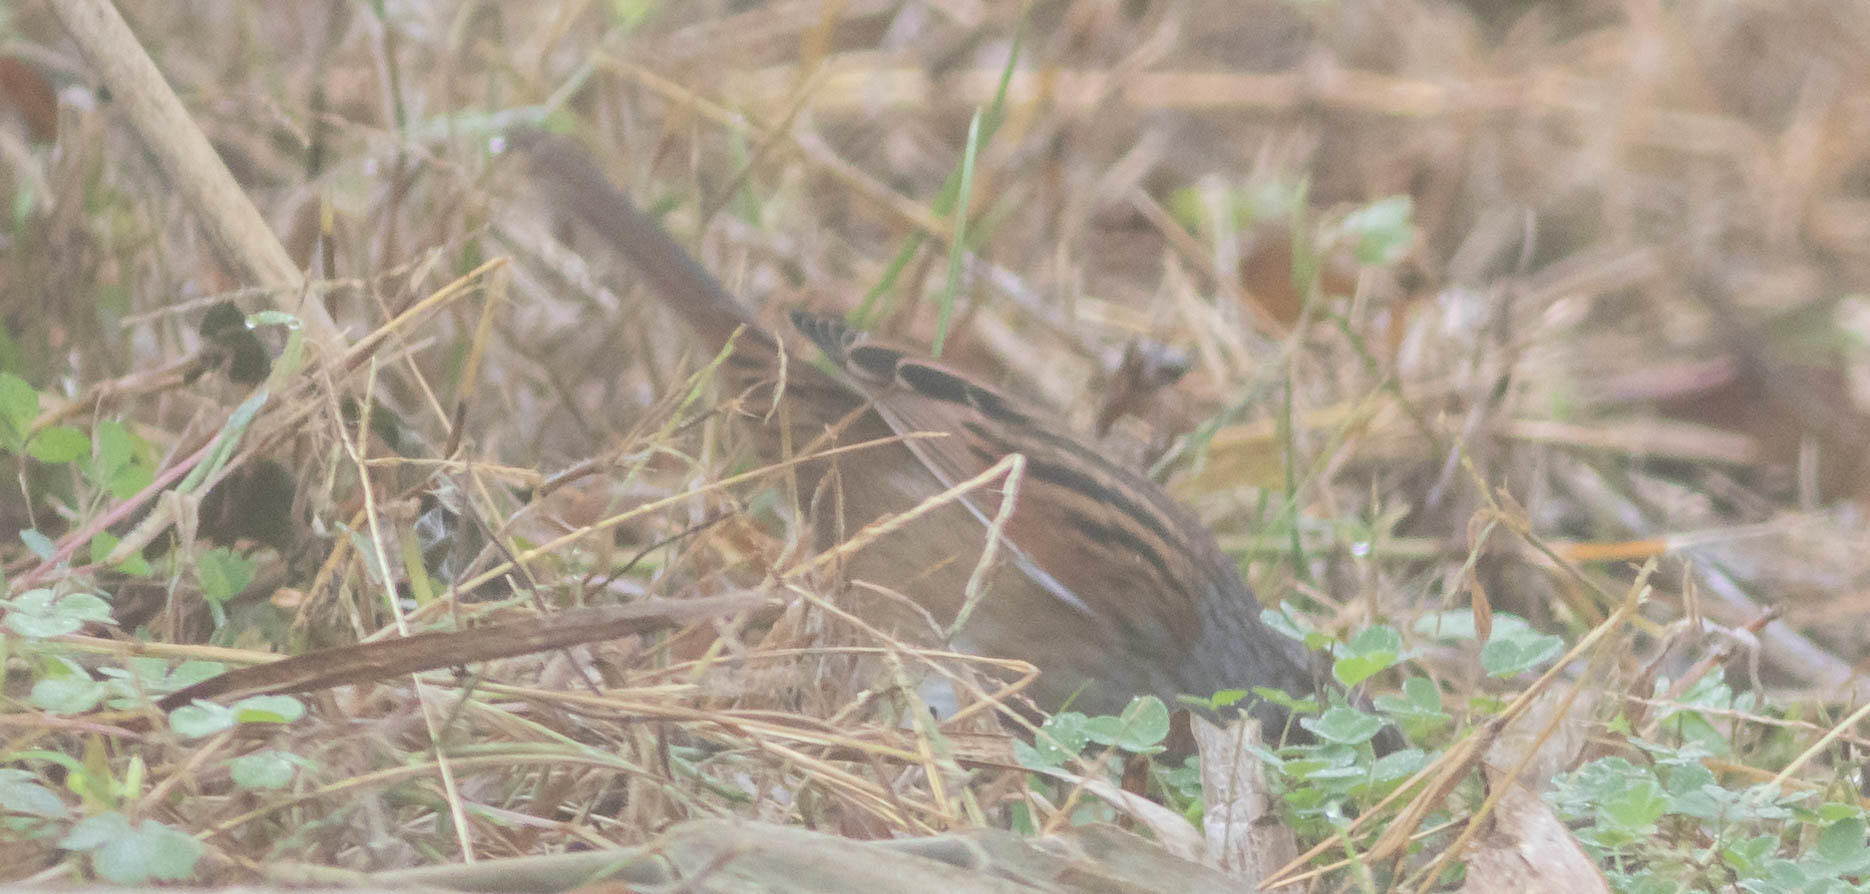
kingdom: Animalia
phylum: Chordata
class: Aves
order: Passeriformes
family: Passerellidae
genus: Melospiza
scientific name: Melospiza georgiana
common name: Swamp sparrow
